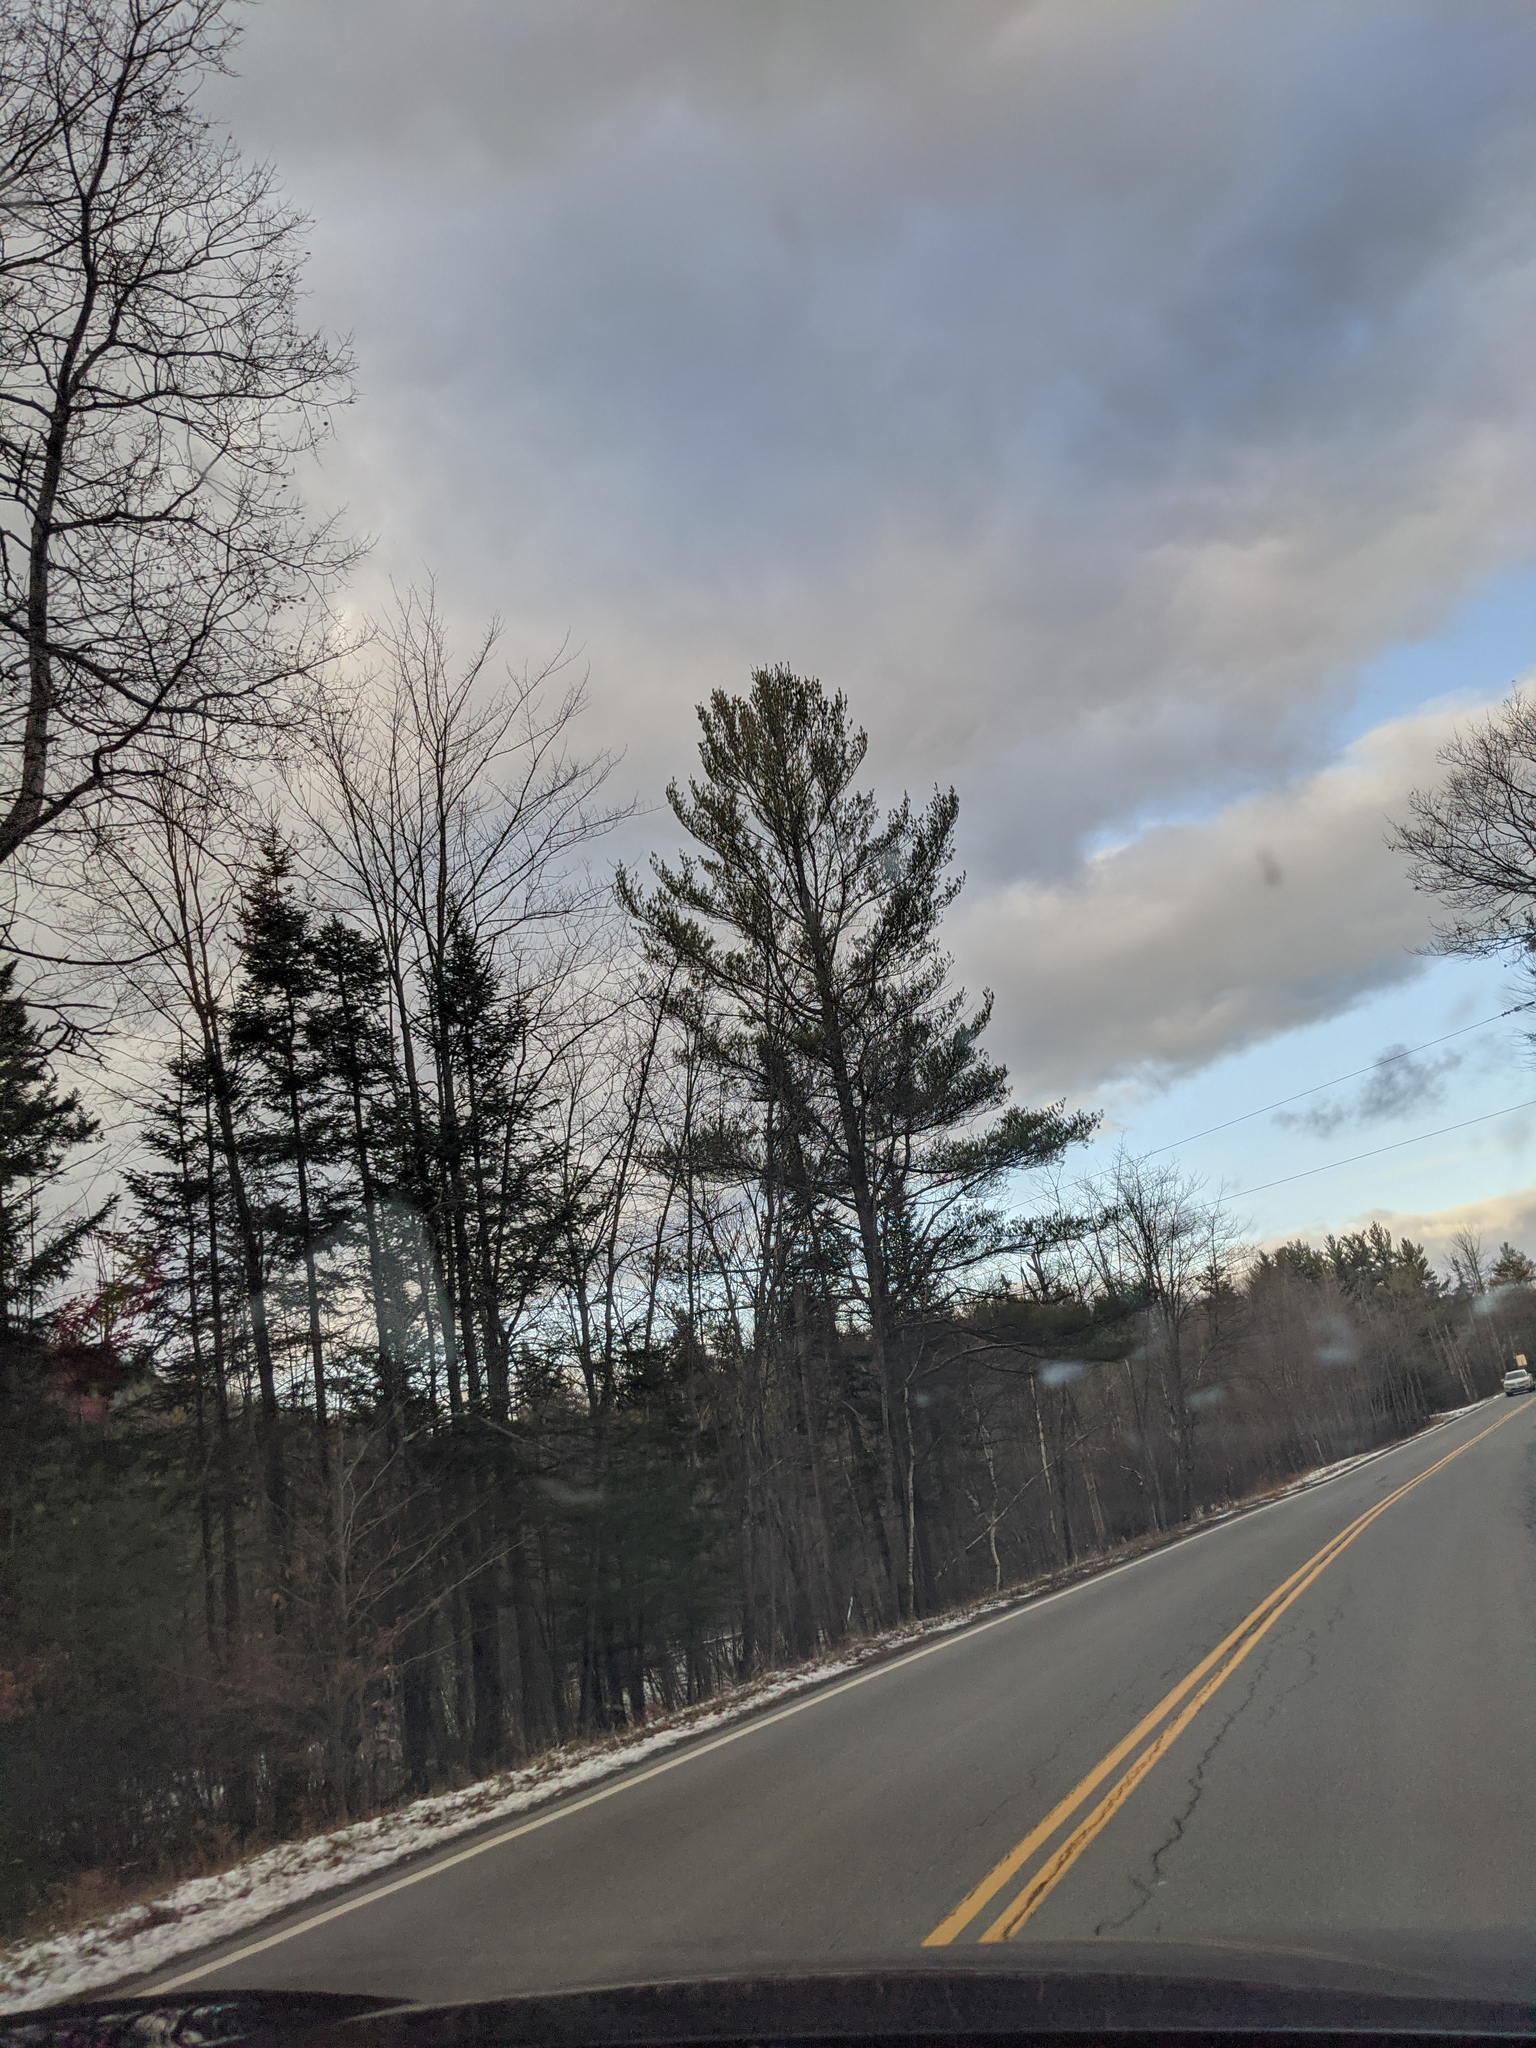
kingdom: Plantae
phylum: Tracheophyta
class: Pinopsida
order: Pinales
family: Pinaceae
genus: Pinus
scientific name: Pinus strobus
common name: Weymouth pine
